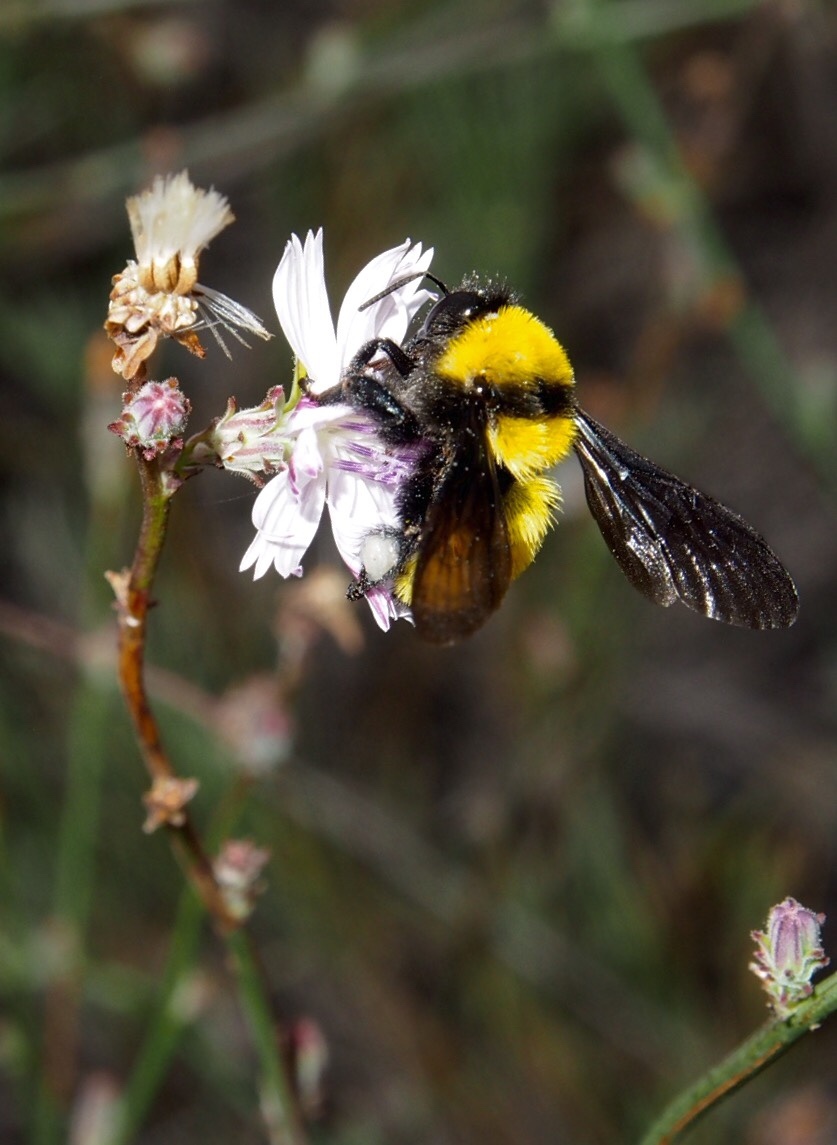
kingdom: Animalia
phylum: Arthropoda
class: Insecta
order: Hymenoptera
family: Apidae
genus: Bombus
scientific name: Bombus sonorus
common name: Sonoran bumble bee
